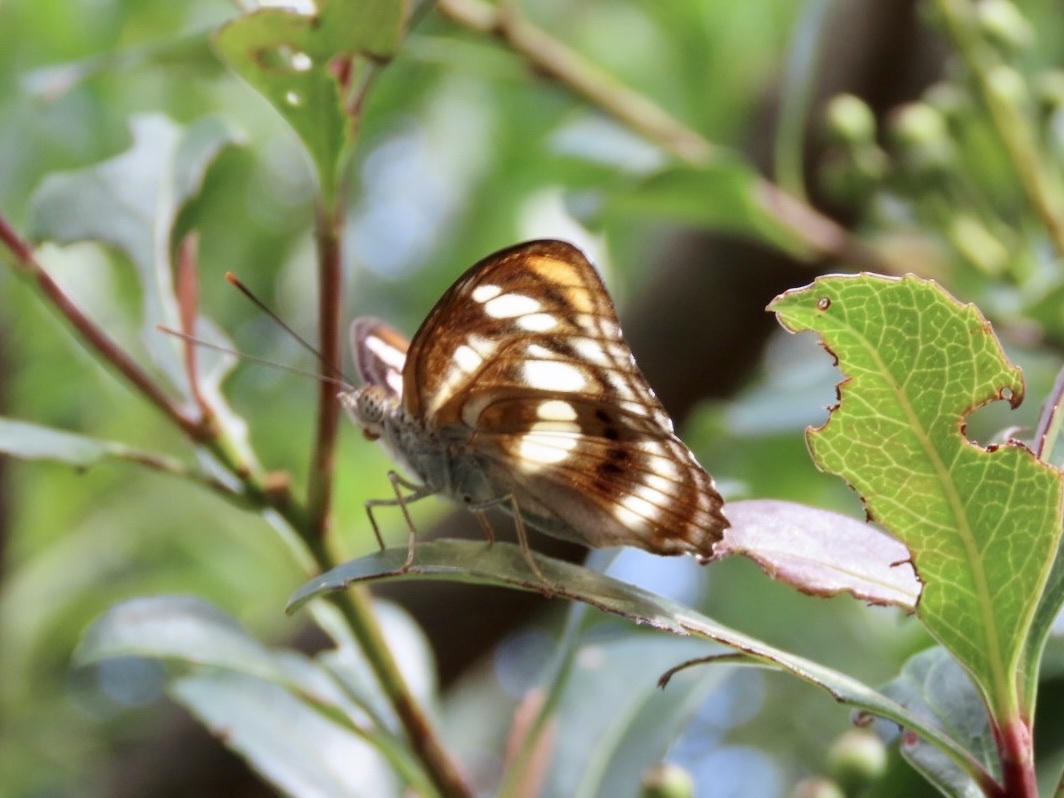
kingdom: Animalia
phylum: Arthropoda
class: Insecta
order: Lepidoptera
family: Nymphalidae
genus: Parathyma
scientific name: Parathyma nefte
